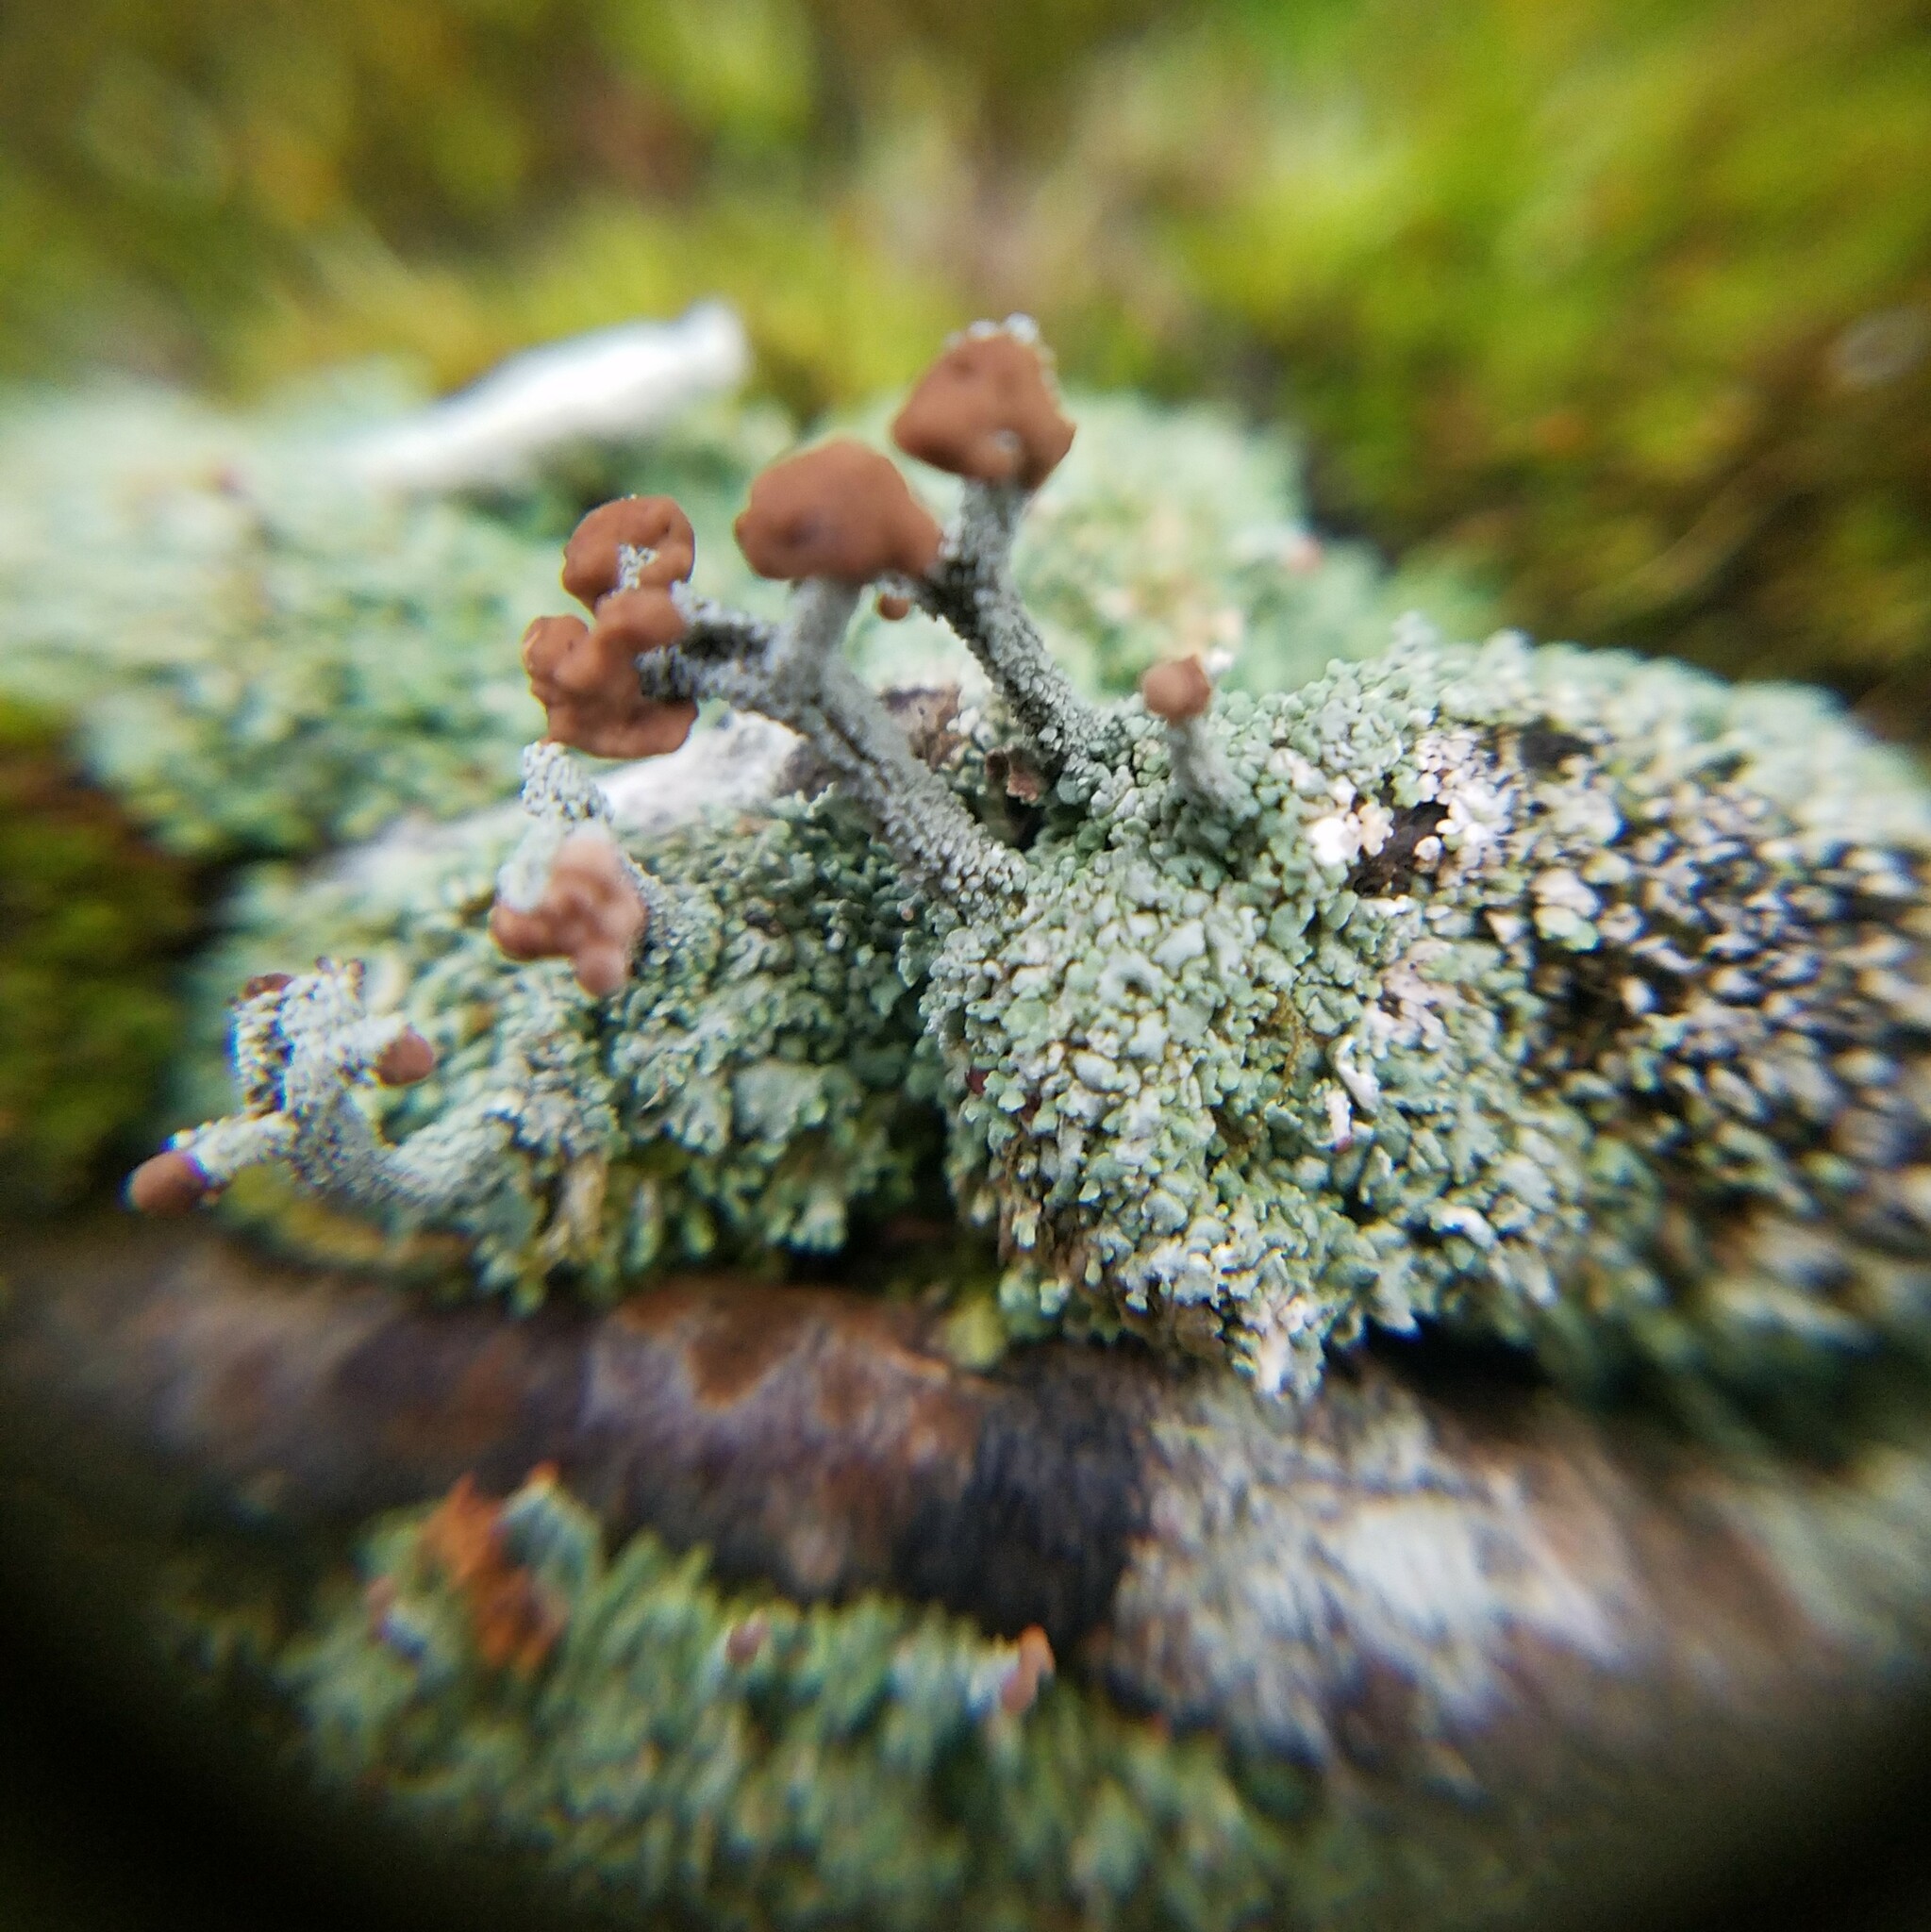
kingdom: Fungi
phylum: Ascomycota
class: Lecanoromycetes
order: Lecanorales
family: Cladoniaceae
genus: Cladonia
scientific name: Cladonia peziziformis
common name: Cup lichen
